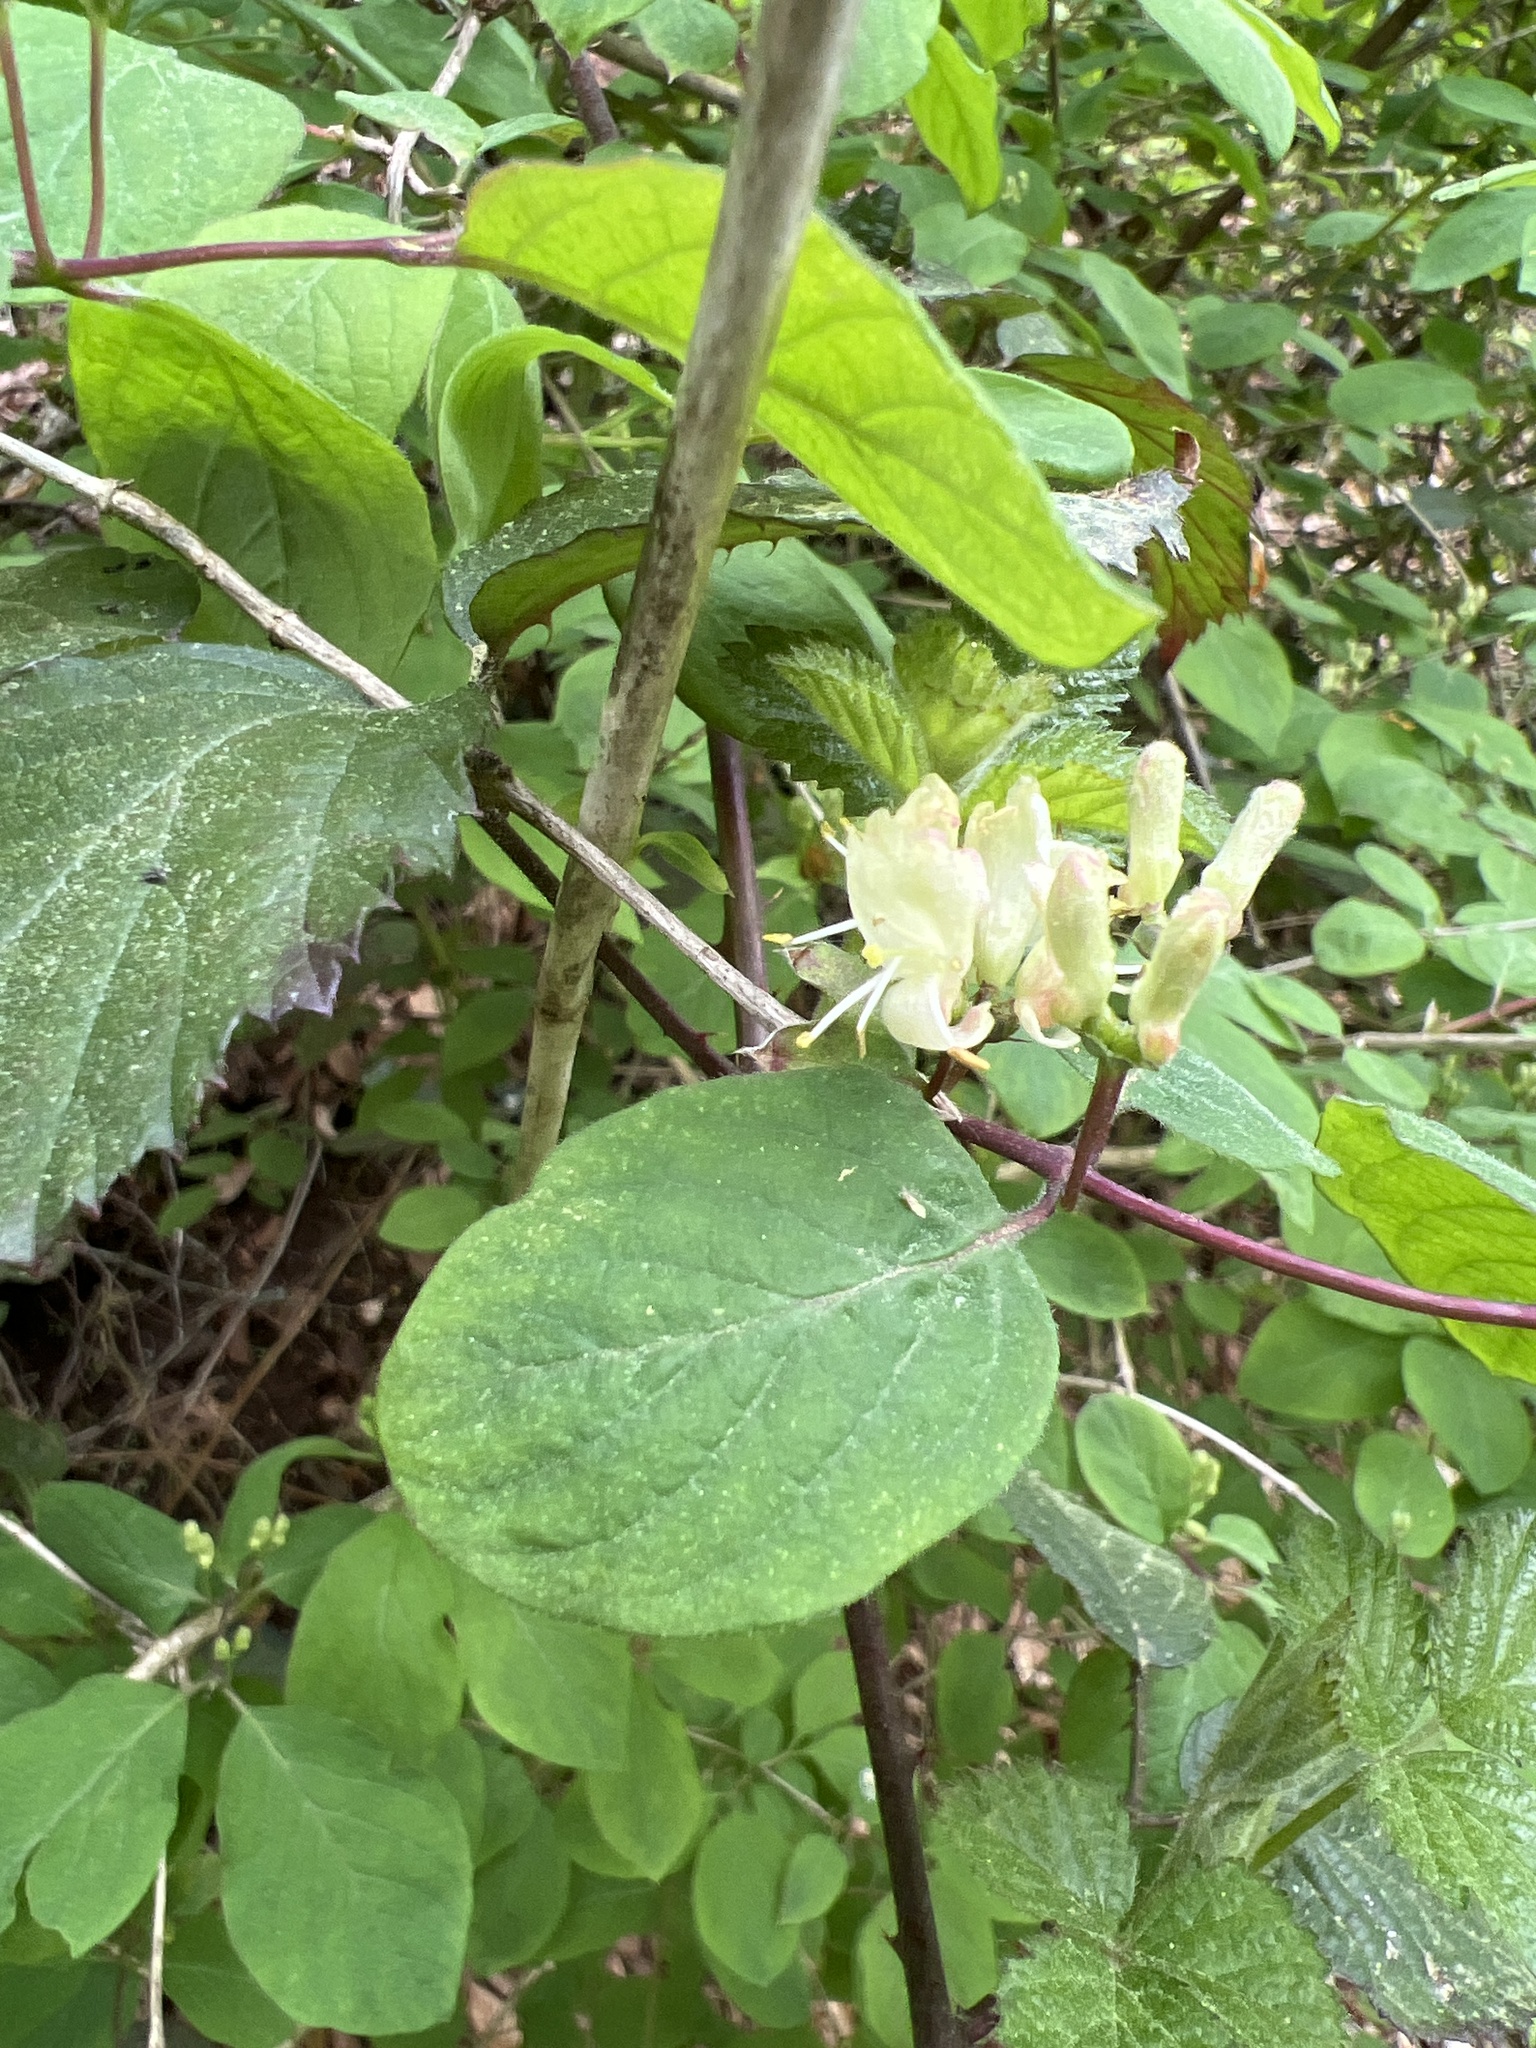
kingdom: Plantae
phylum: Tracheophyta
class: Magnoliopsida
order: Dipsacales
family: Caprifoliaceae
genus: Lonicera
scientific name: Lonicera xylosteum
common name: Fly honeysuckle
